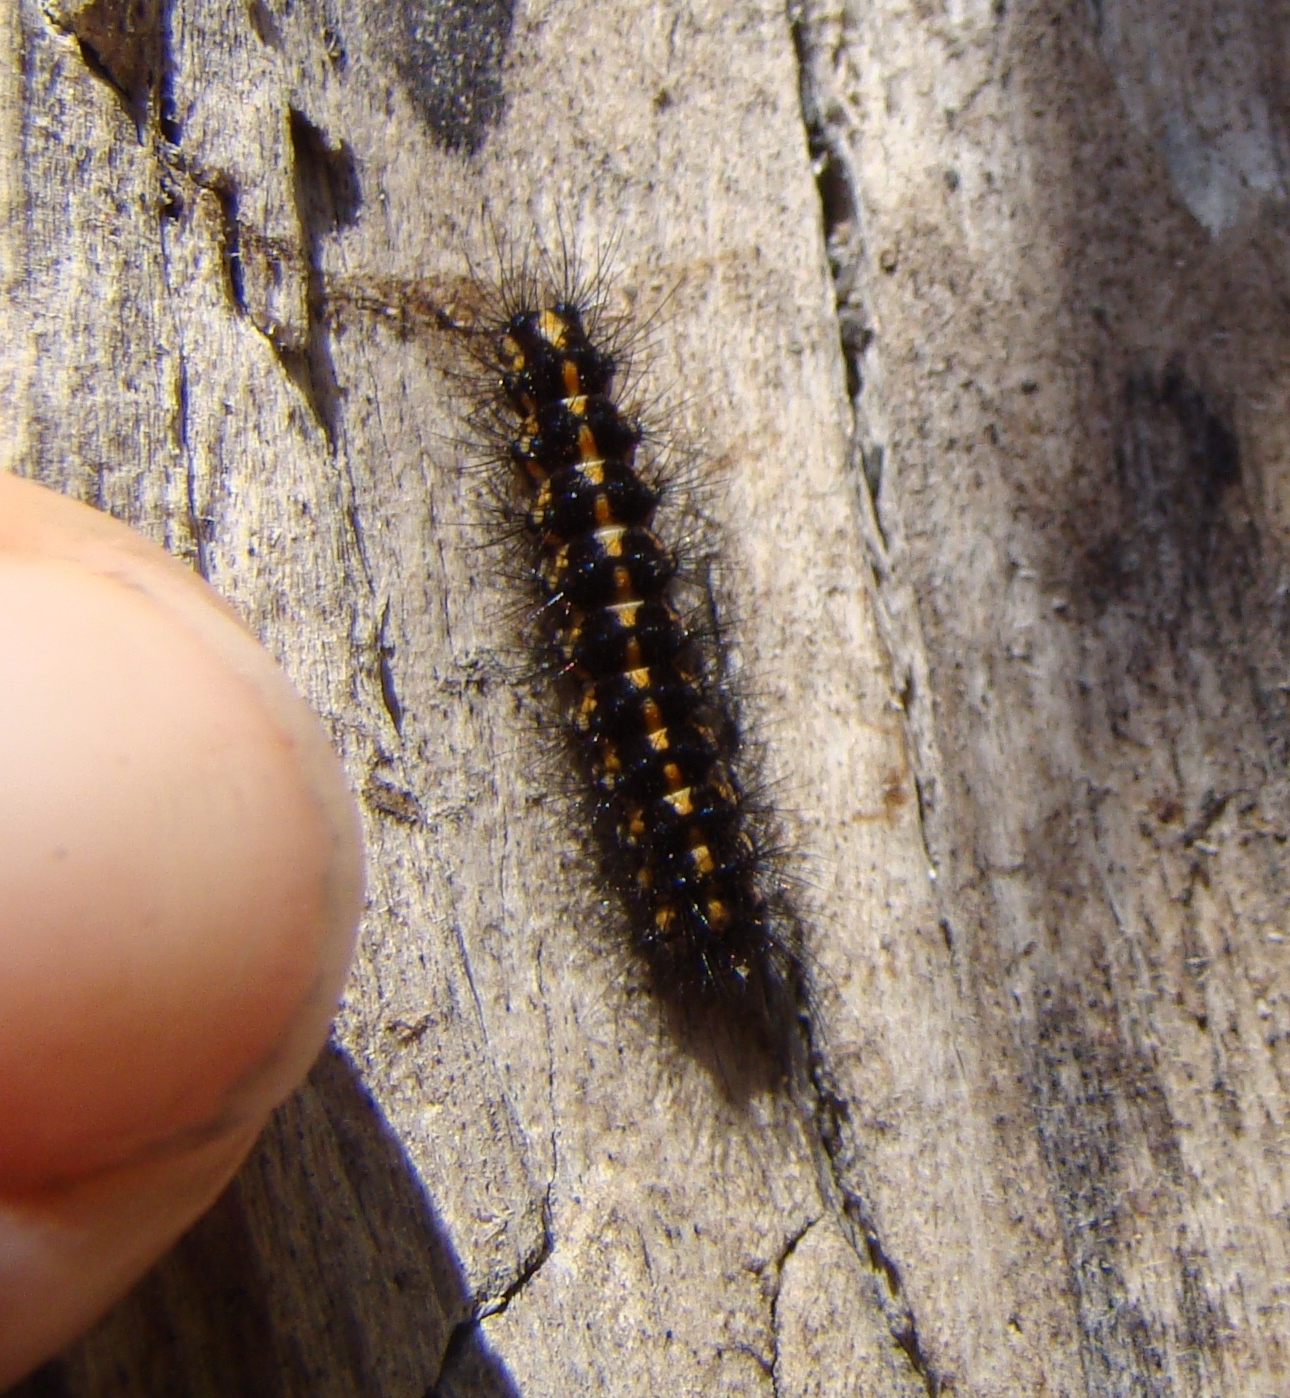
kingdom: Animalia
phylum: Arthropoda
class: Insecta
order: Lepidoptera
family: Erebidae
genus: Nyctemera
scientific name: Nyctemera annulatum
